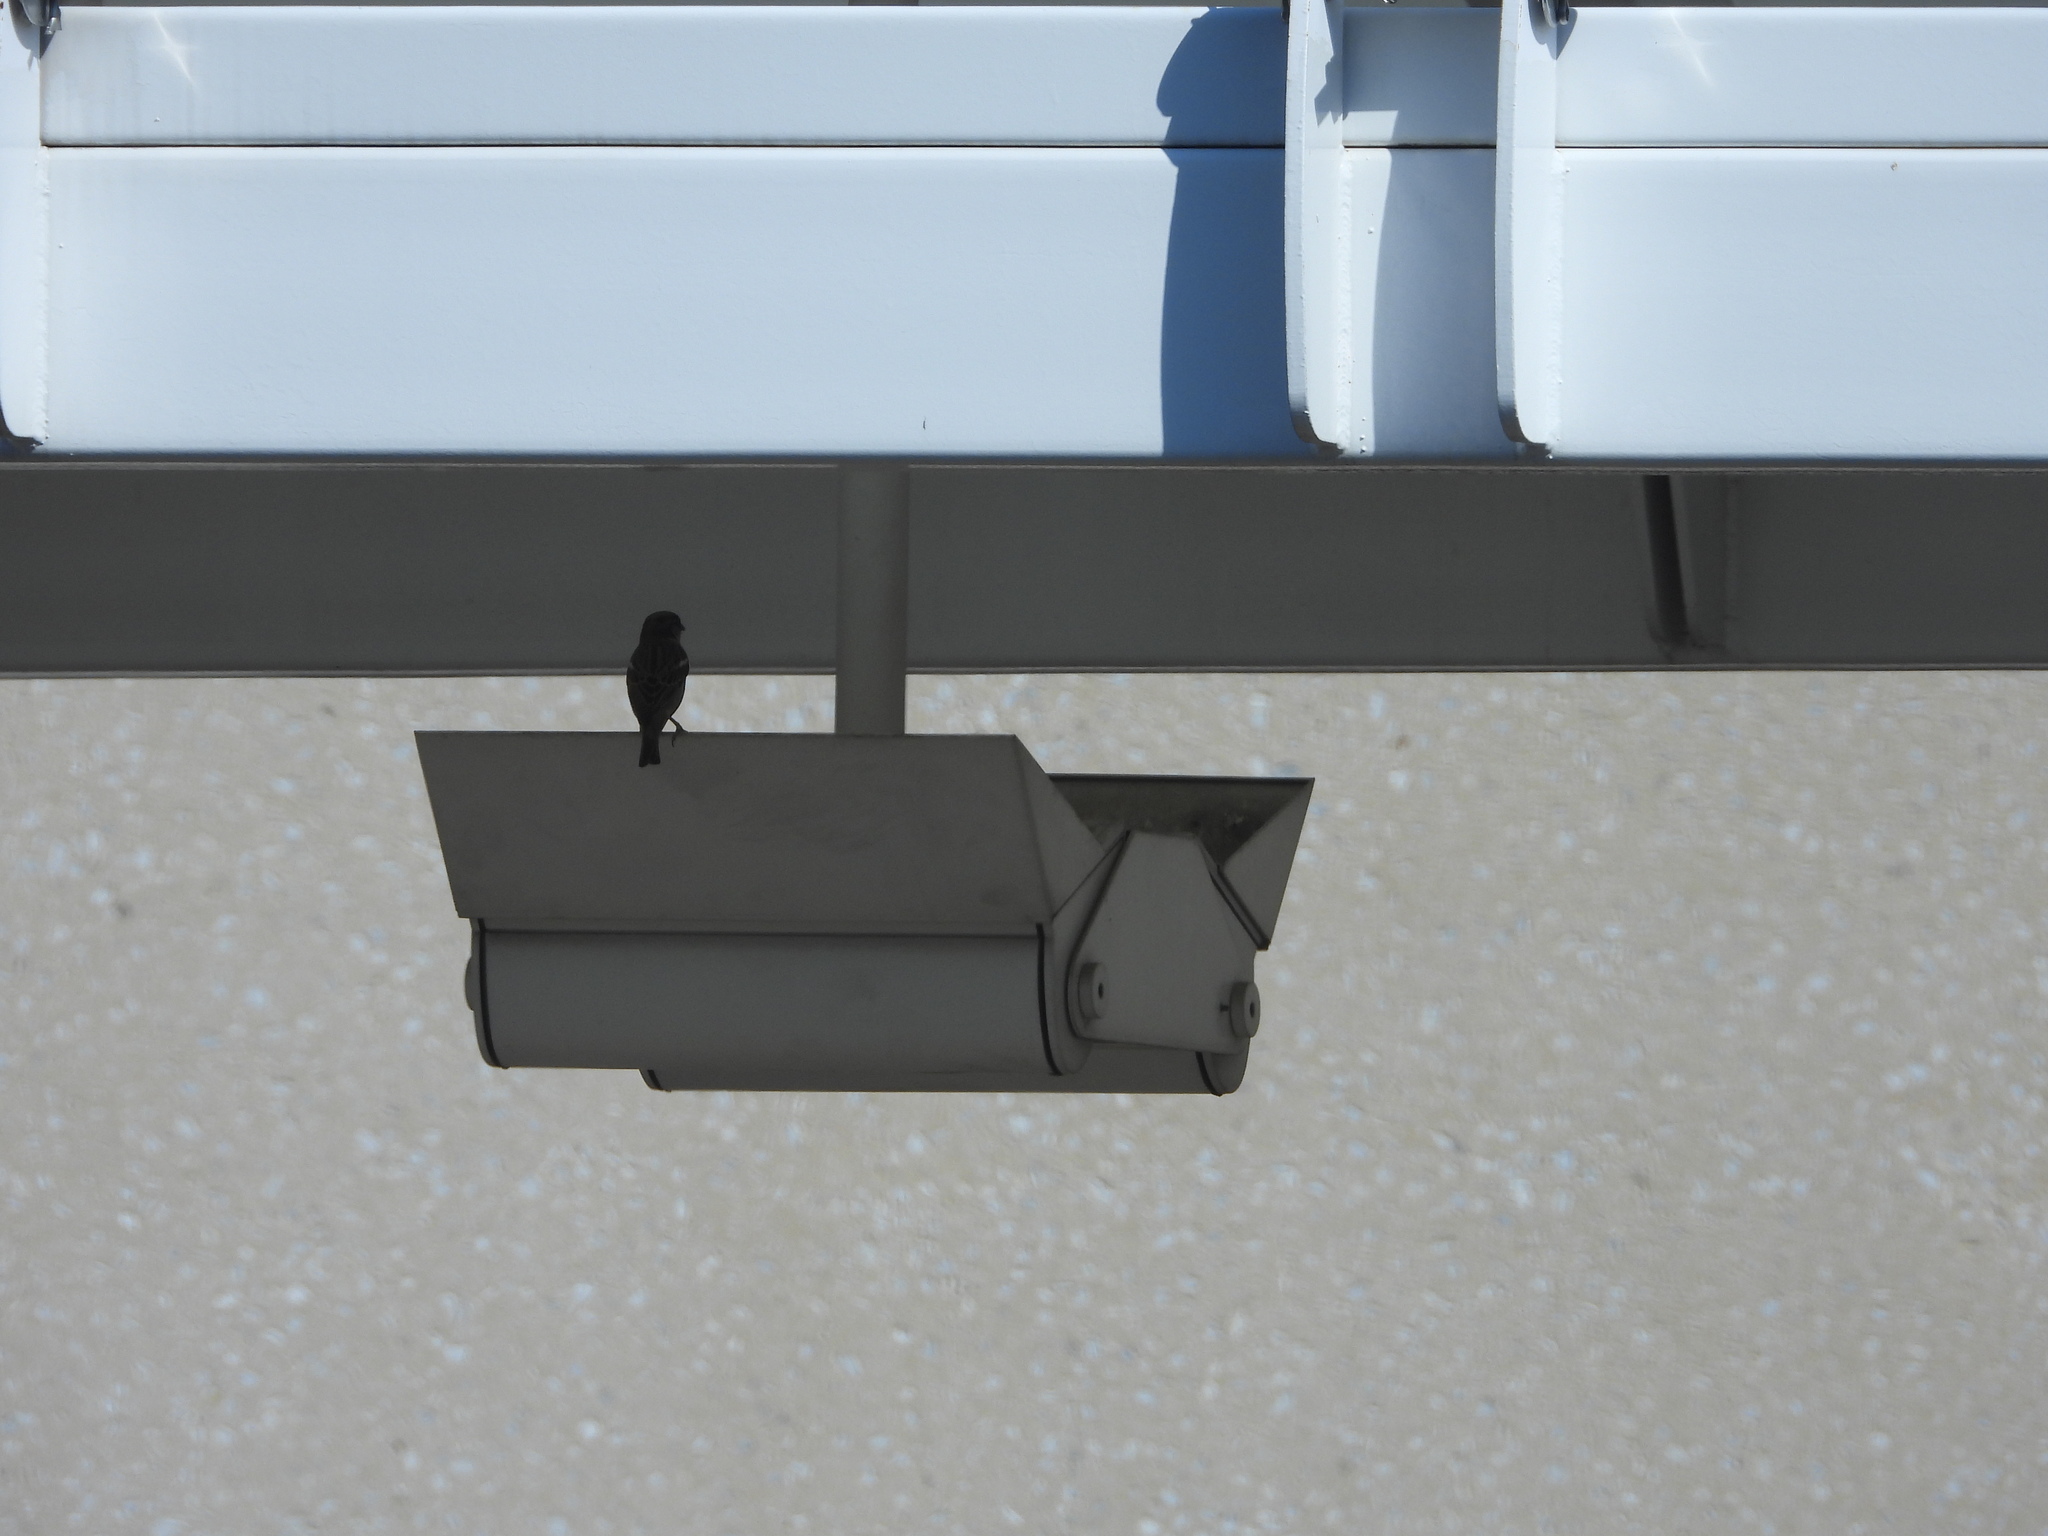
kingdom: Animalia
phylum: Chordata
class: Aves
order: Passeriformes
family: Passeridae
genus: Passer
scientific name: Passer domesticus
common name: House sparrow
